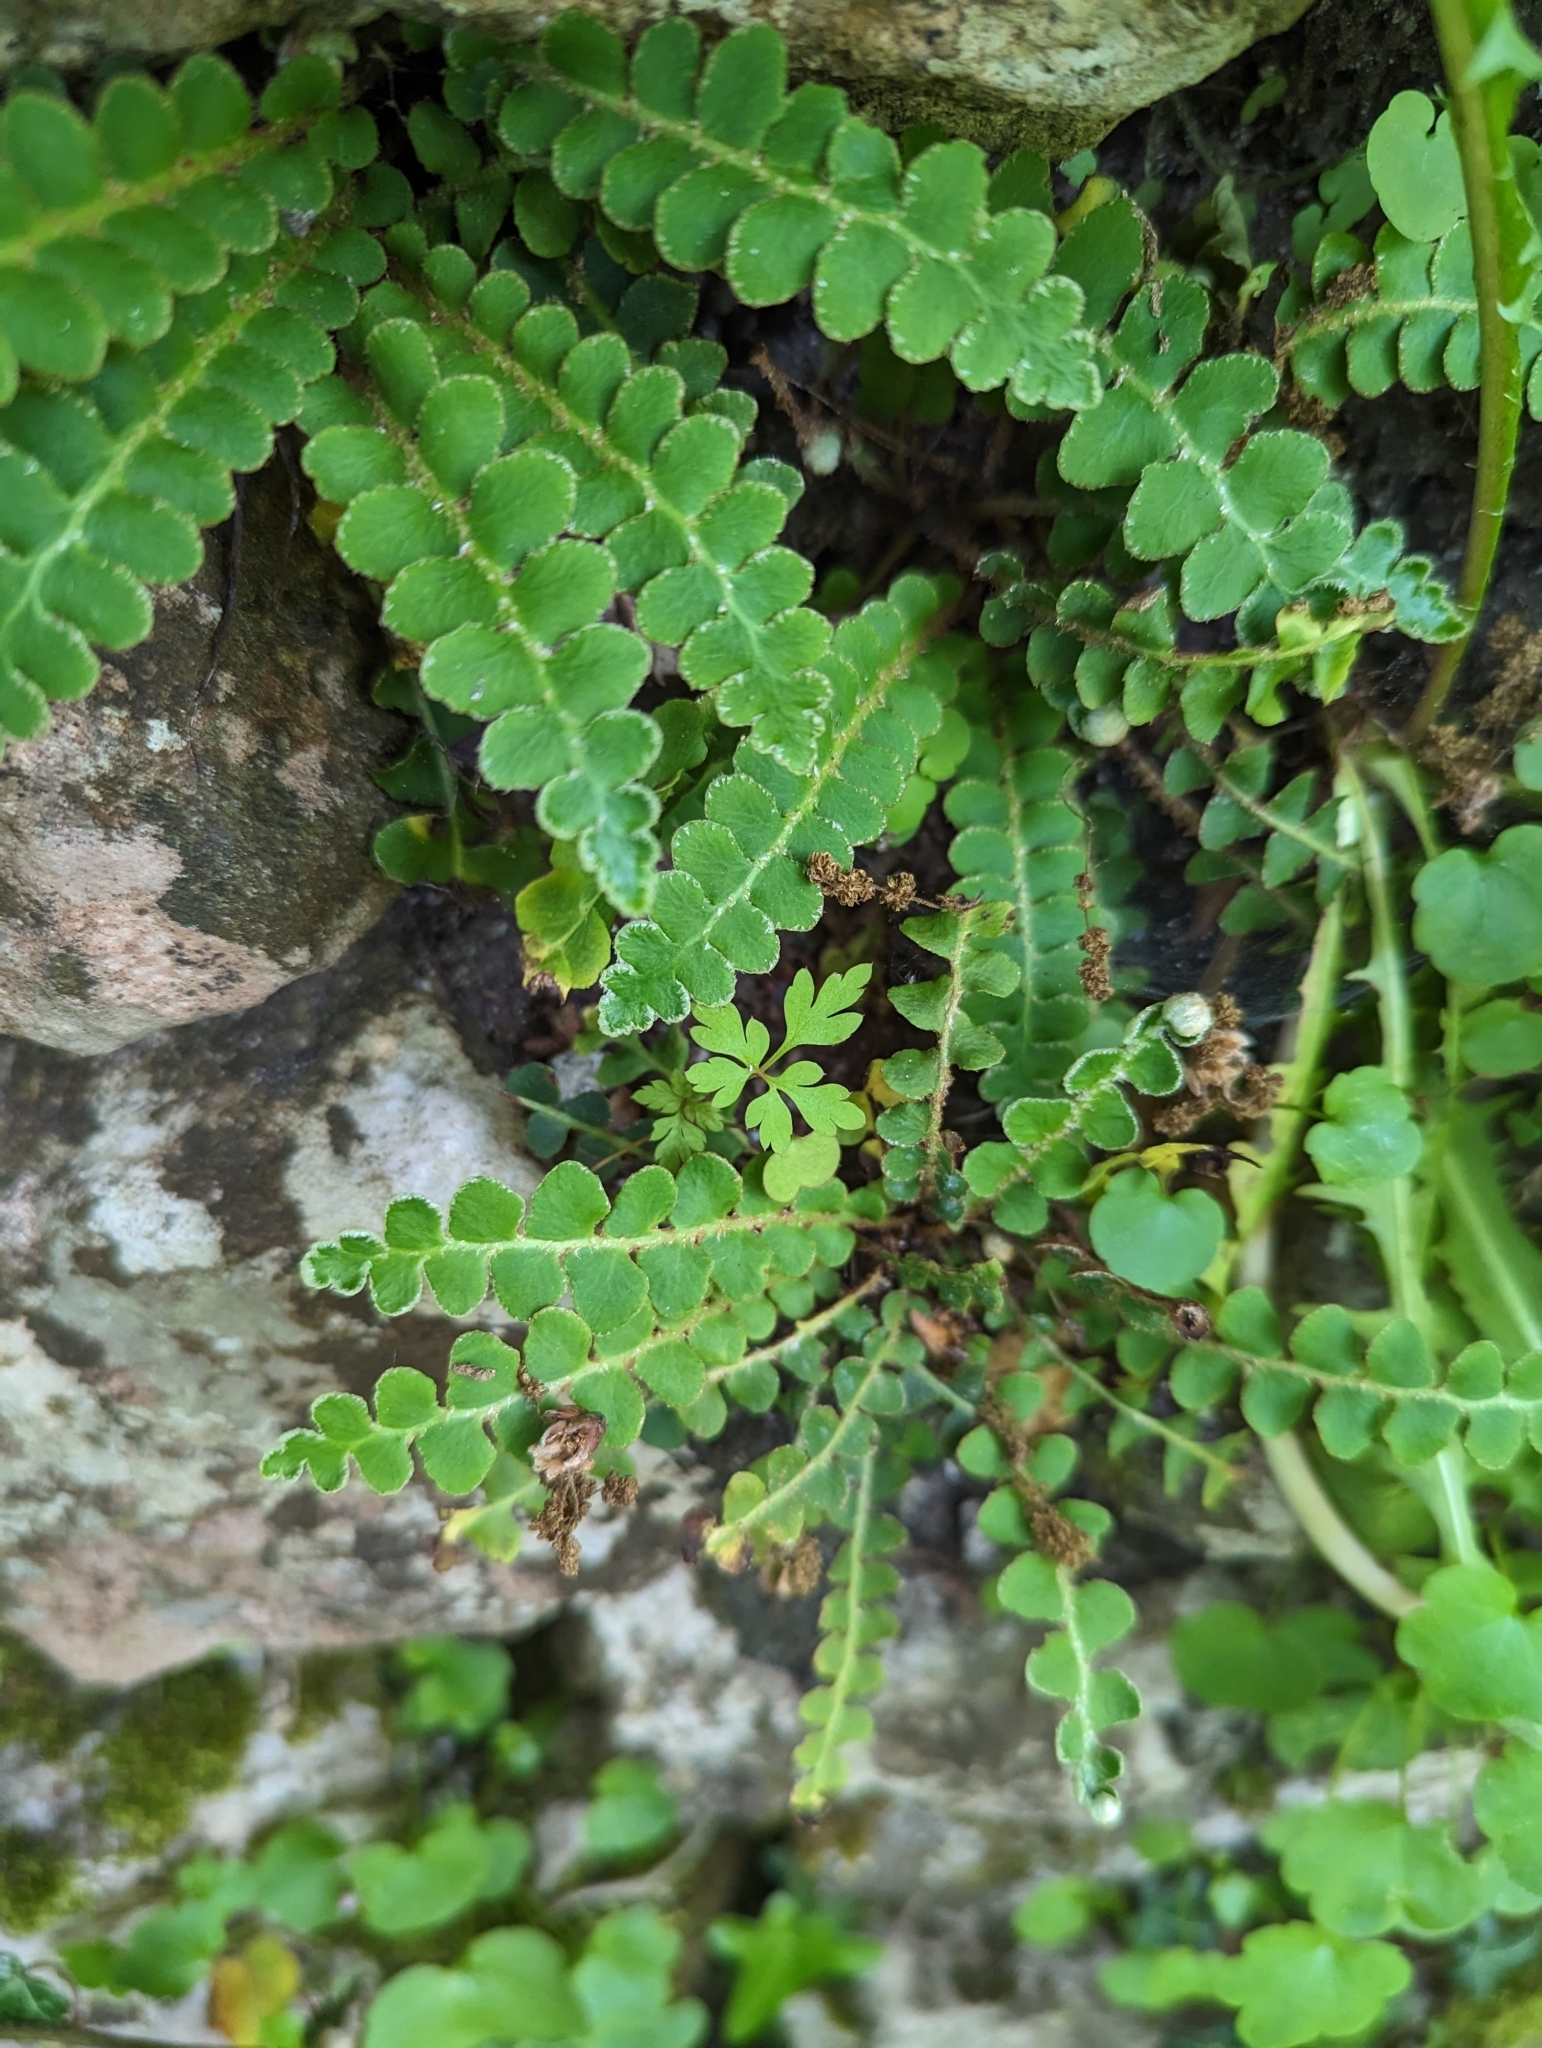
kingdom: Plantae
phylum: Tracheophyta
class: Polypodiopsida
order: Polypodiales
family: Aspleniaceae
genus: Asplenium
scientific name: Asplenium ceterach
